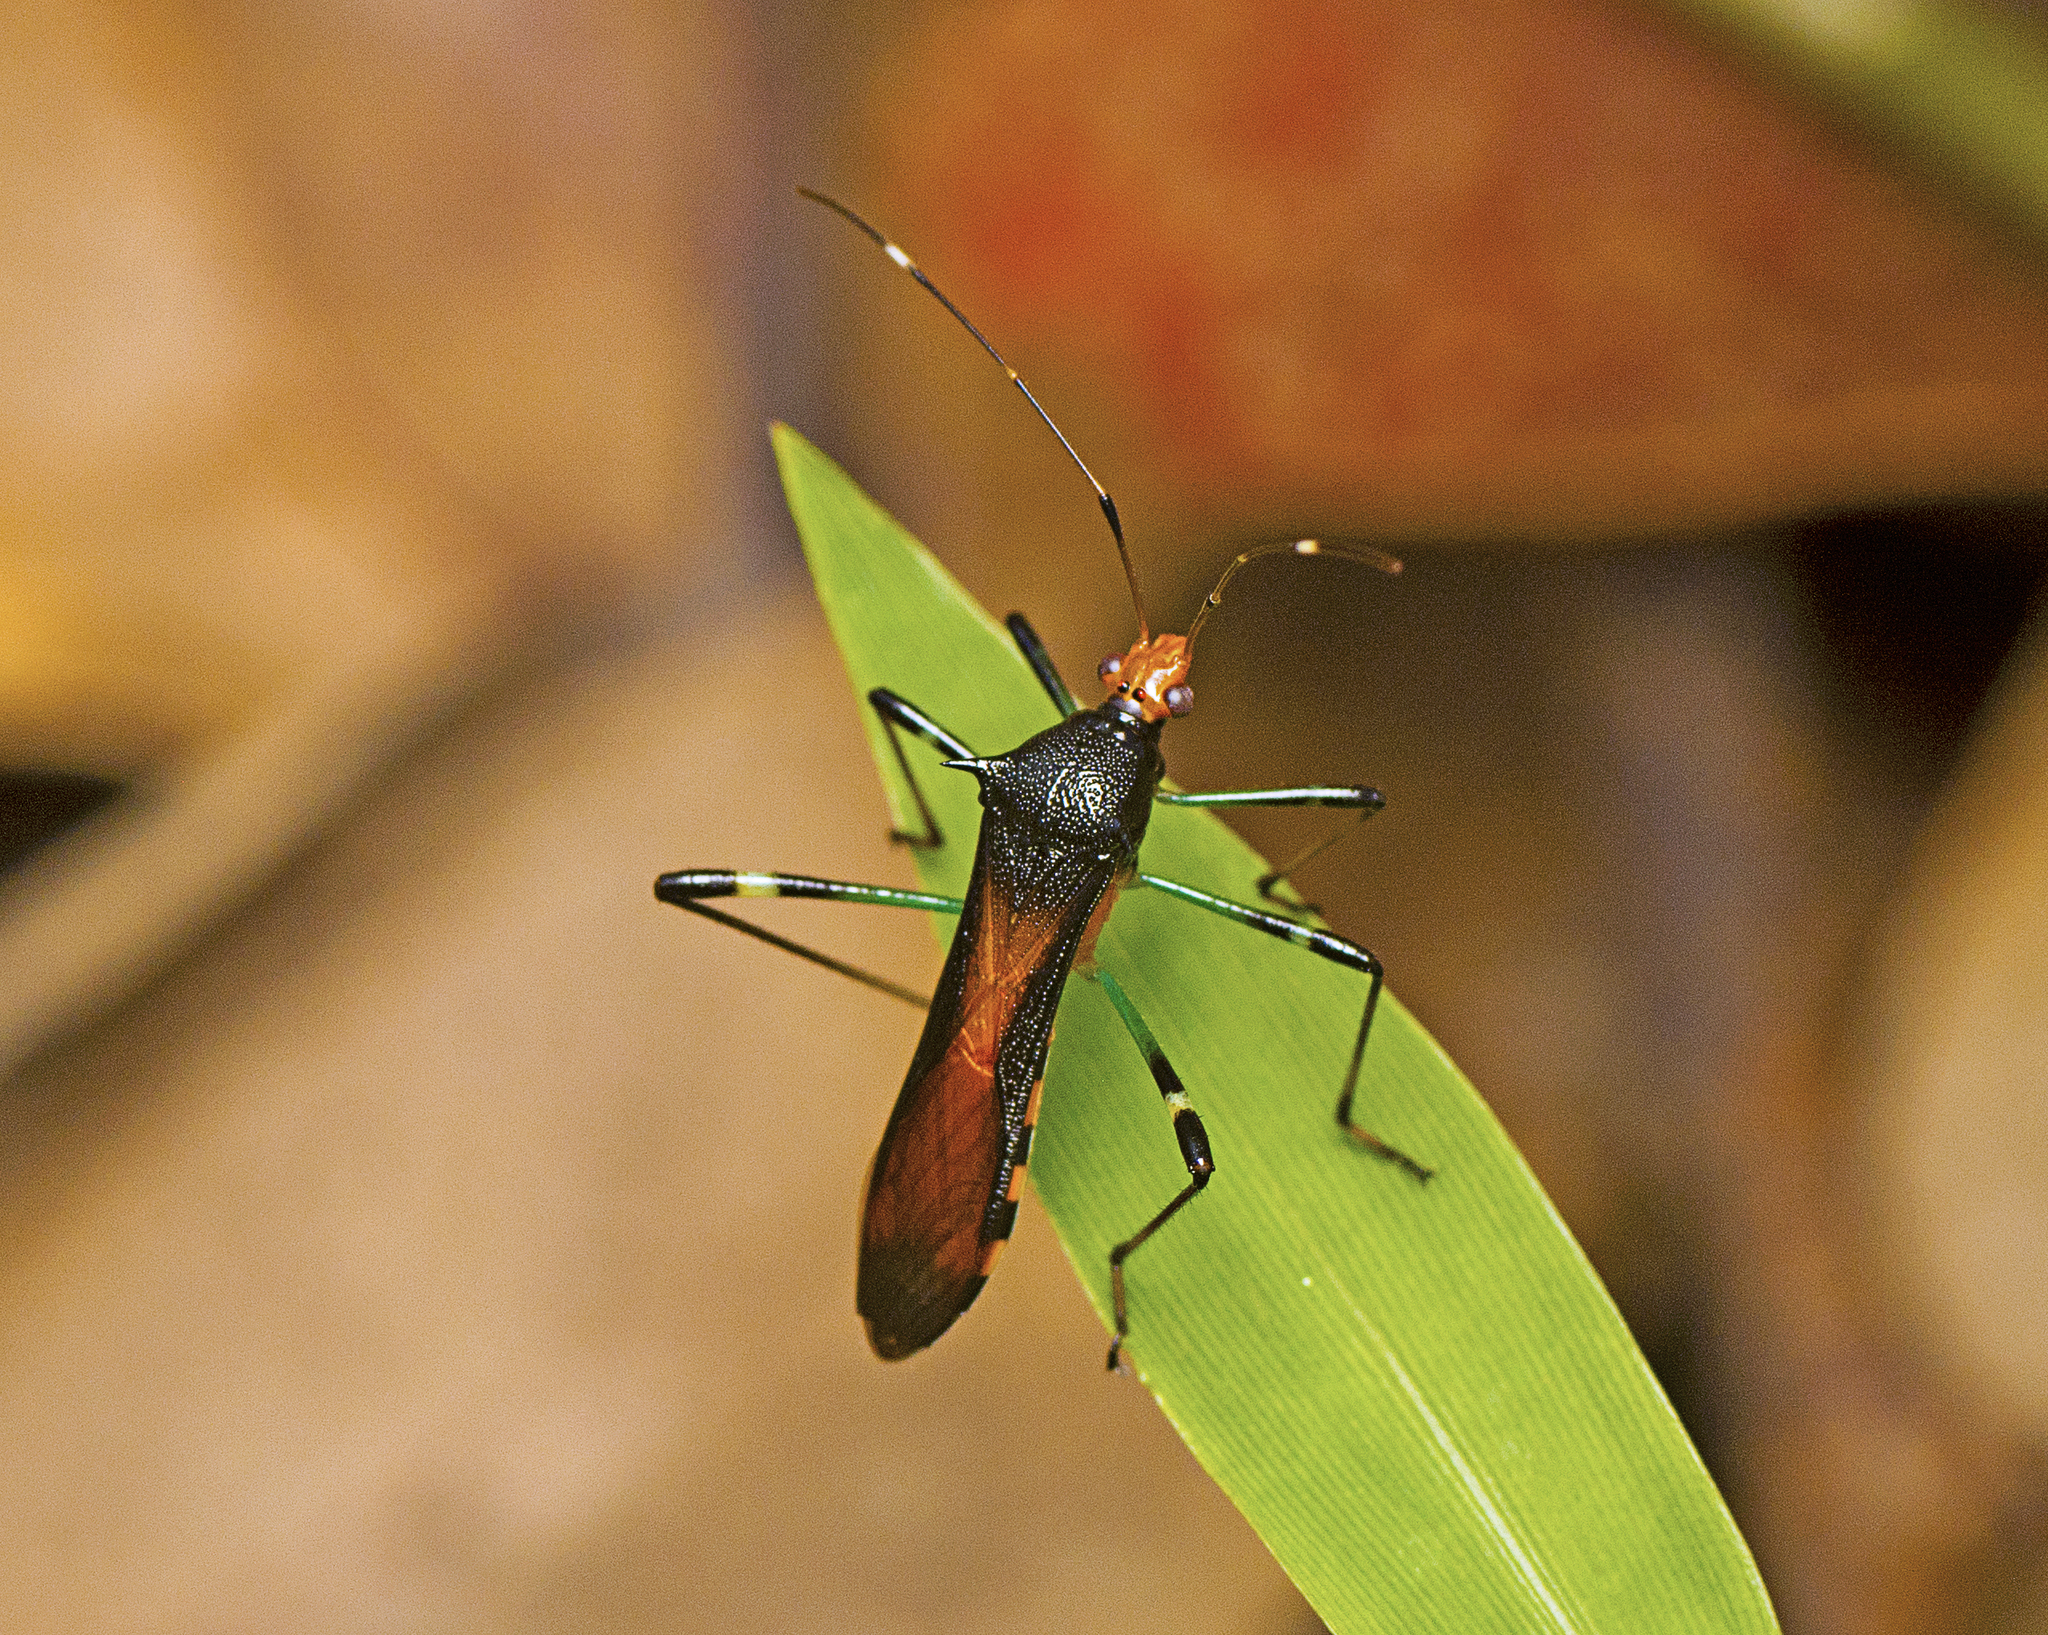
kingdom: Animalia
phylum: Arthropoda
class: Insecta
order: Hemiptera
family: Alydidae
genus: Noliphus
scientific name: Noliphus erythrocephalus
